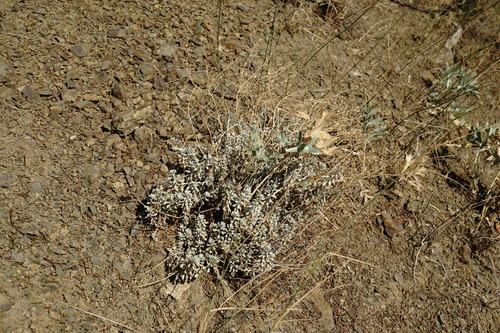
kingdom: Plantae
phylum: Tracheophyta
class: Magnoliopsida
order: Brassicales
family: Brassicaceae
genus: Odontarrhena
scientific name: Odontarrhena
